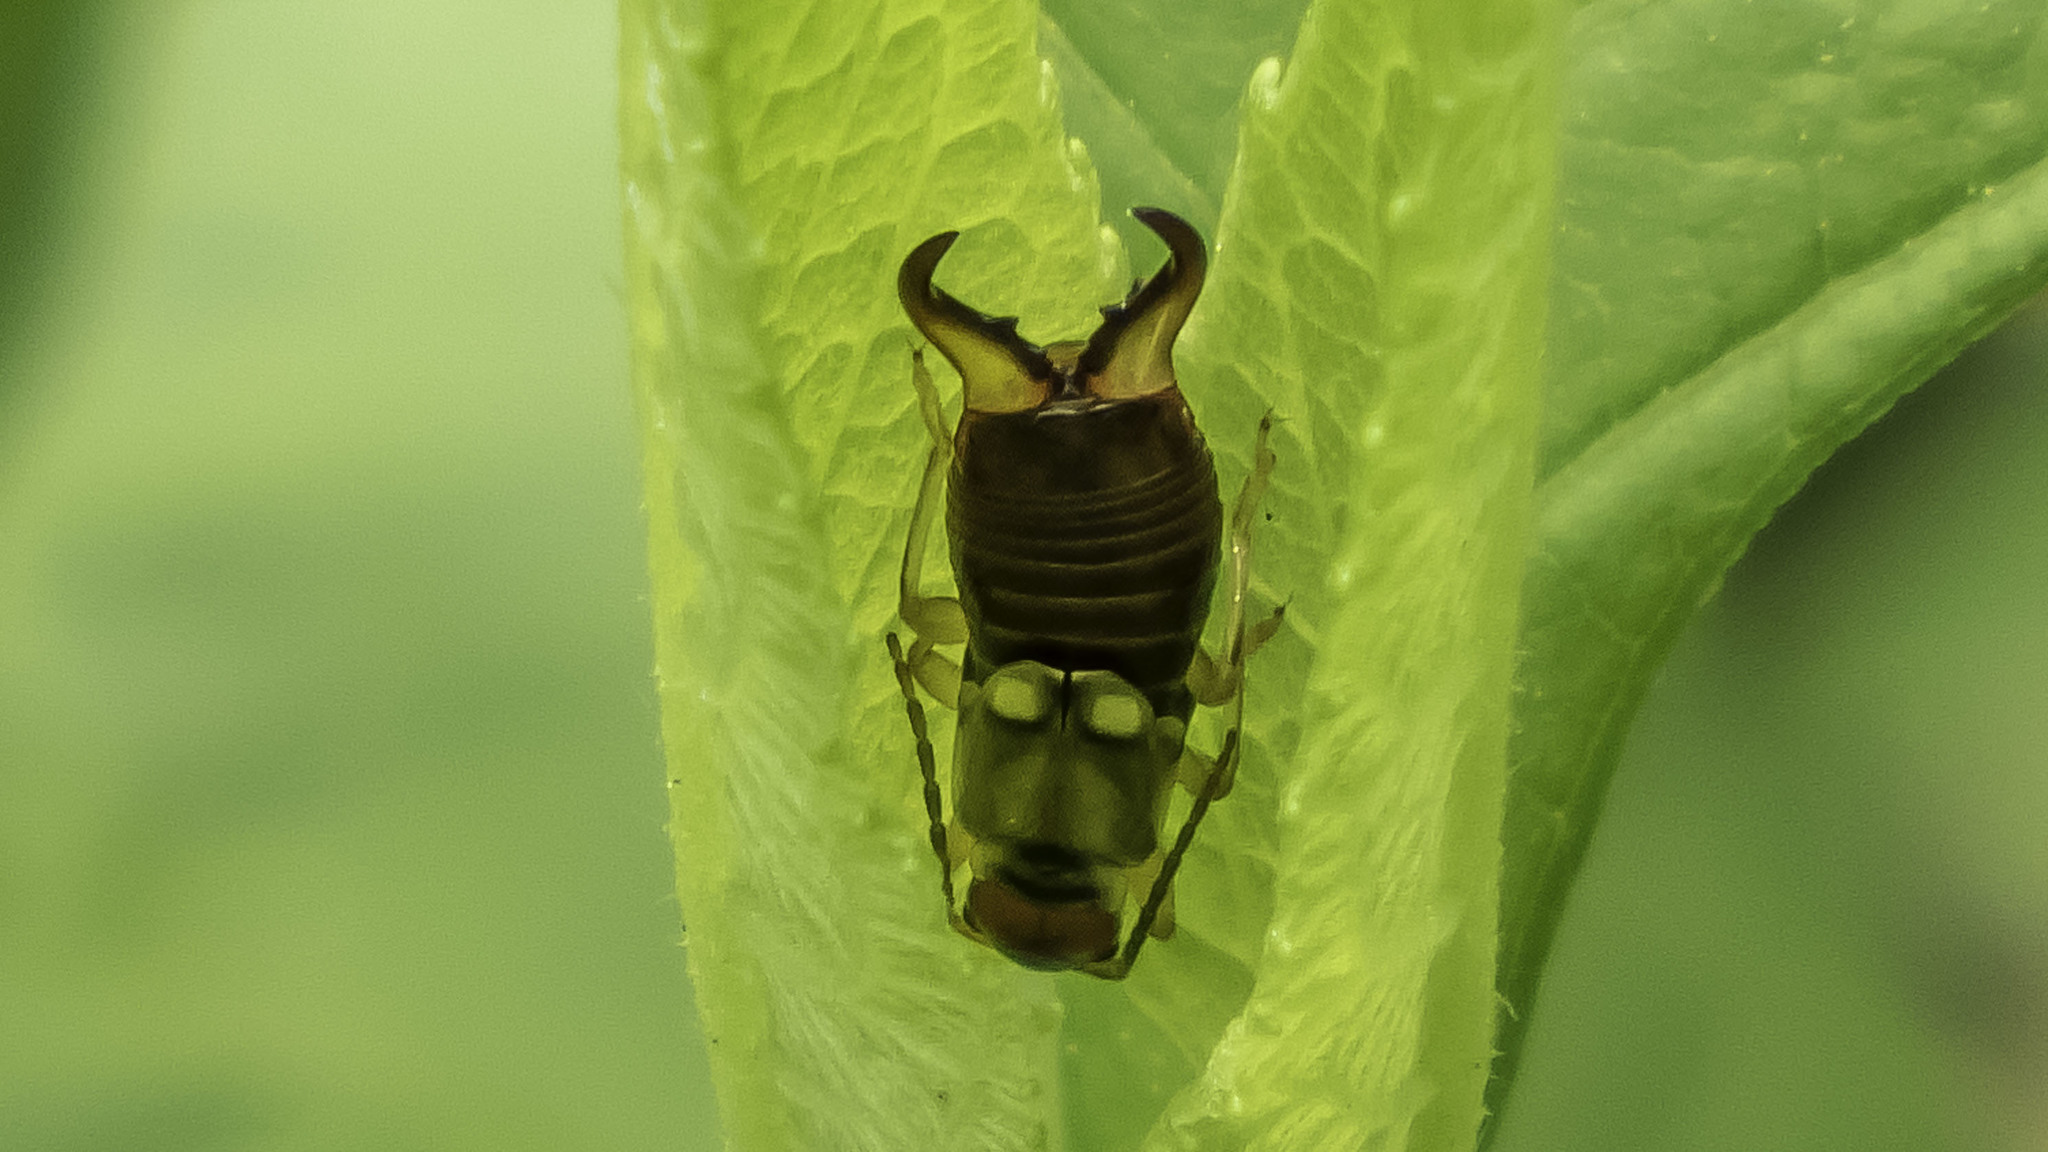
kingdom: Animalia
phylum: Arthropoda
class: Insecta
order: Dermaptera
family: Forficulidae
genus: Forficula
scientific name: Forficula
